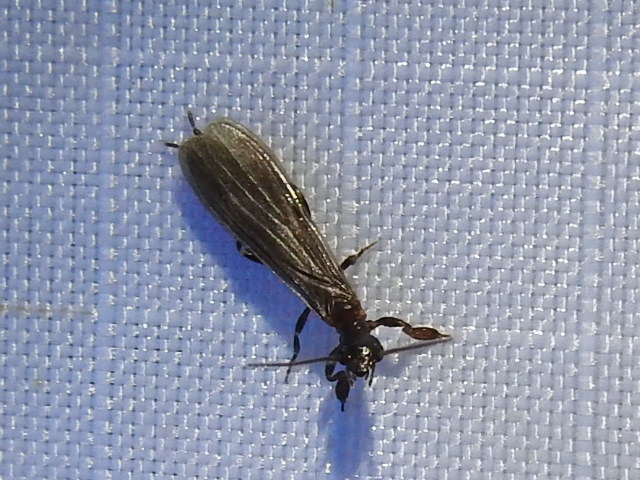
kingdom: Animalia
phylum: Arthropoda
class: Insecta
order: Embioptera
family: Oligotomidae
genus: Oligotoma
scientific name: Oligotoma nigra
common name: Black webspinner
